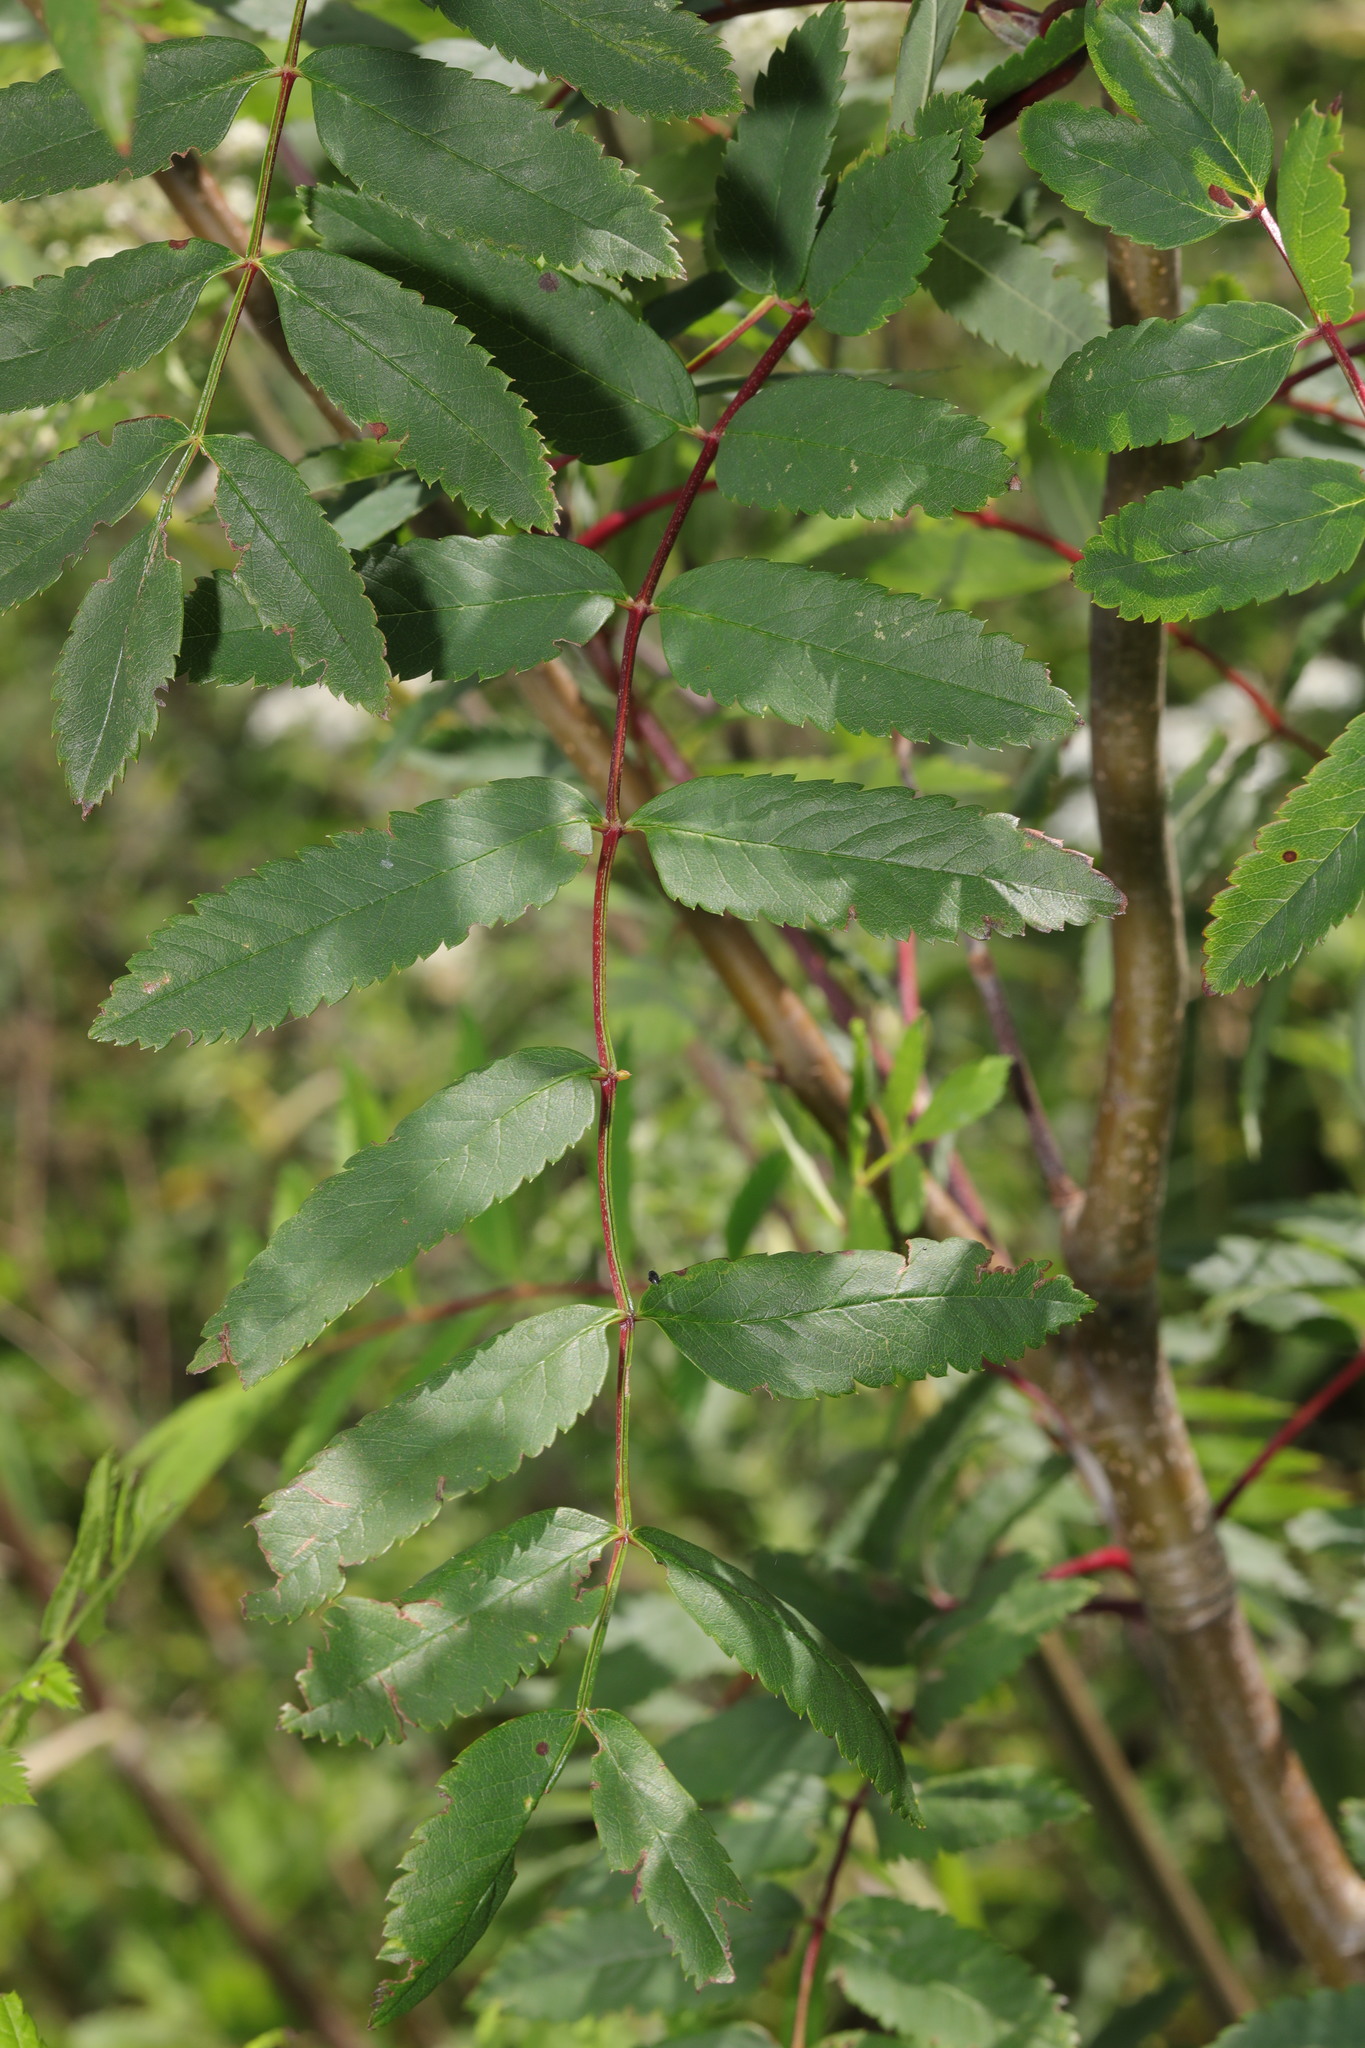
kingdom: Plantae
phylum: Tracheophyta
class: Magnoliopsida
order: Rosales
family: Rosaceae
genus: Sorbus
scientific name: Sorbus aucuparia
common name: Rowan
